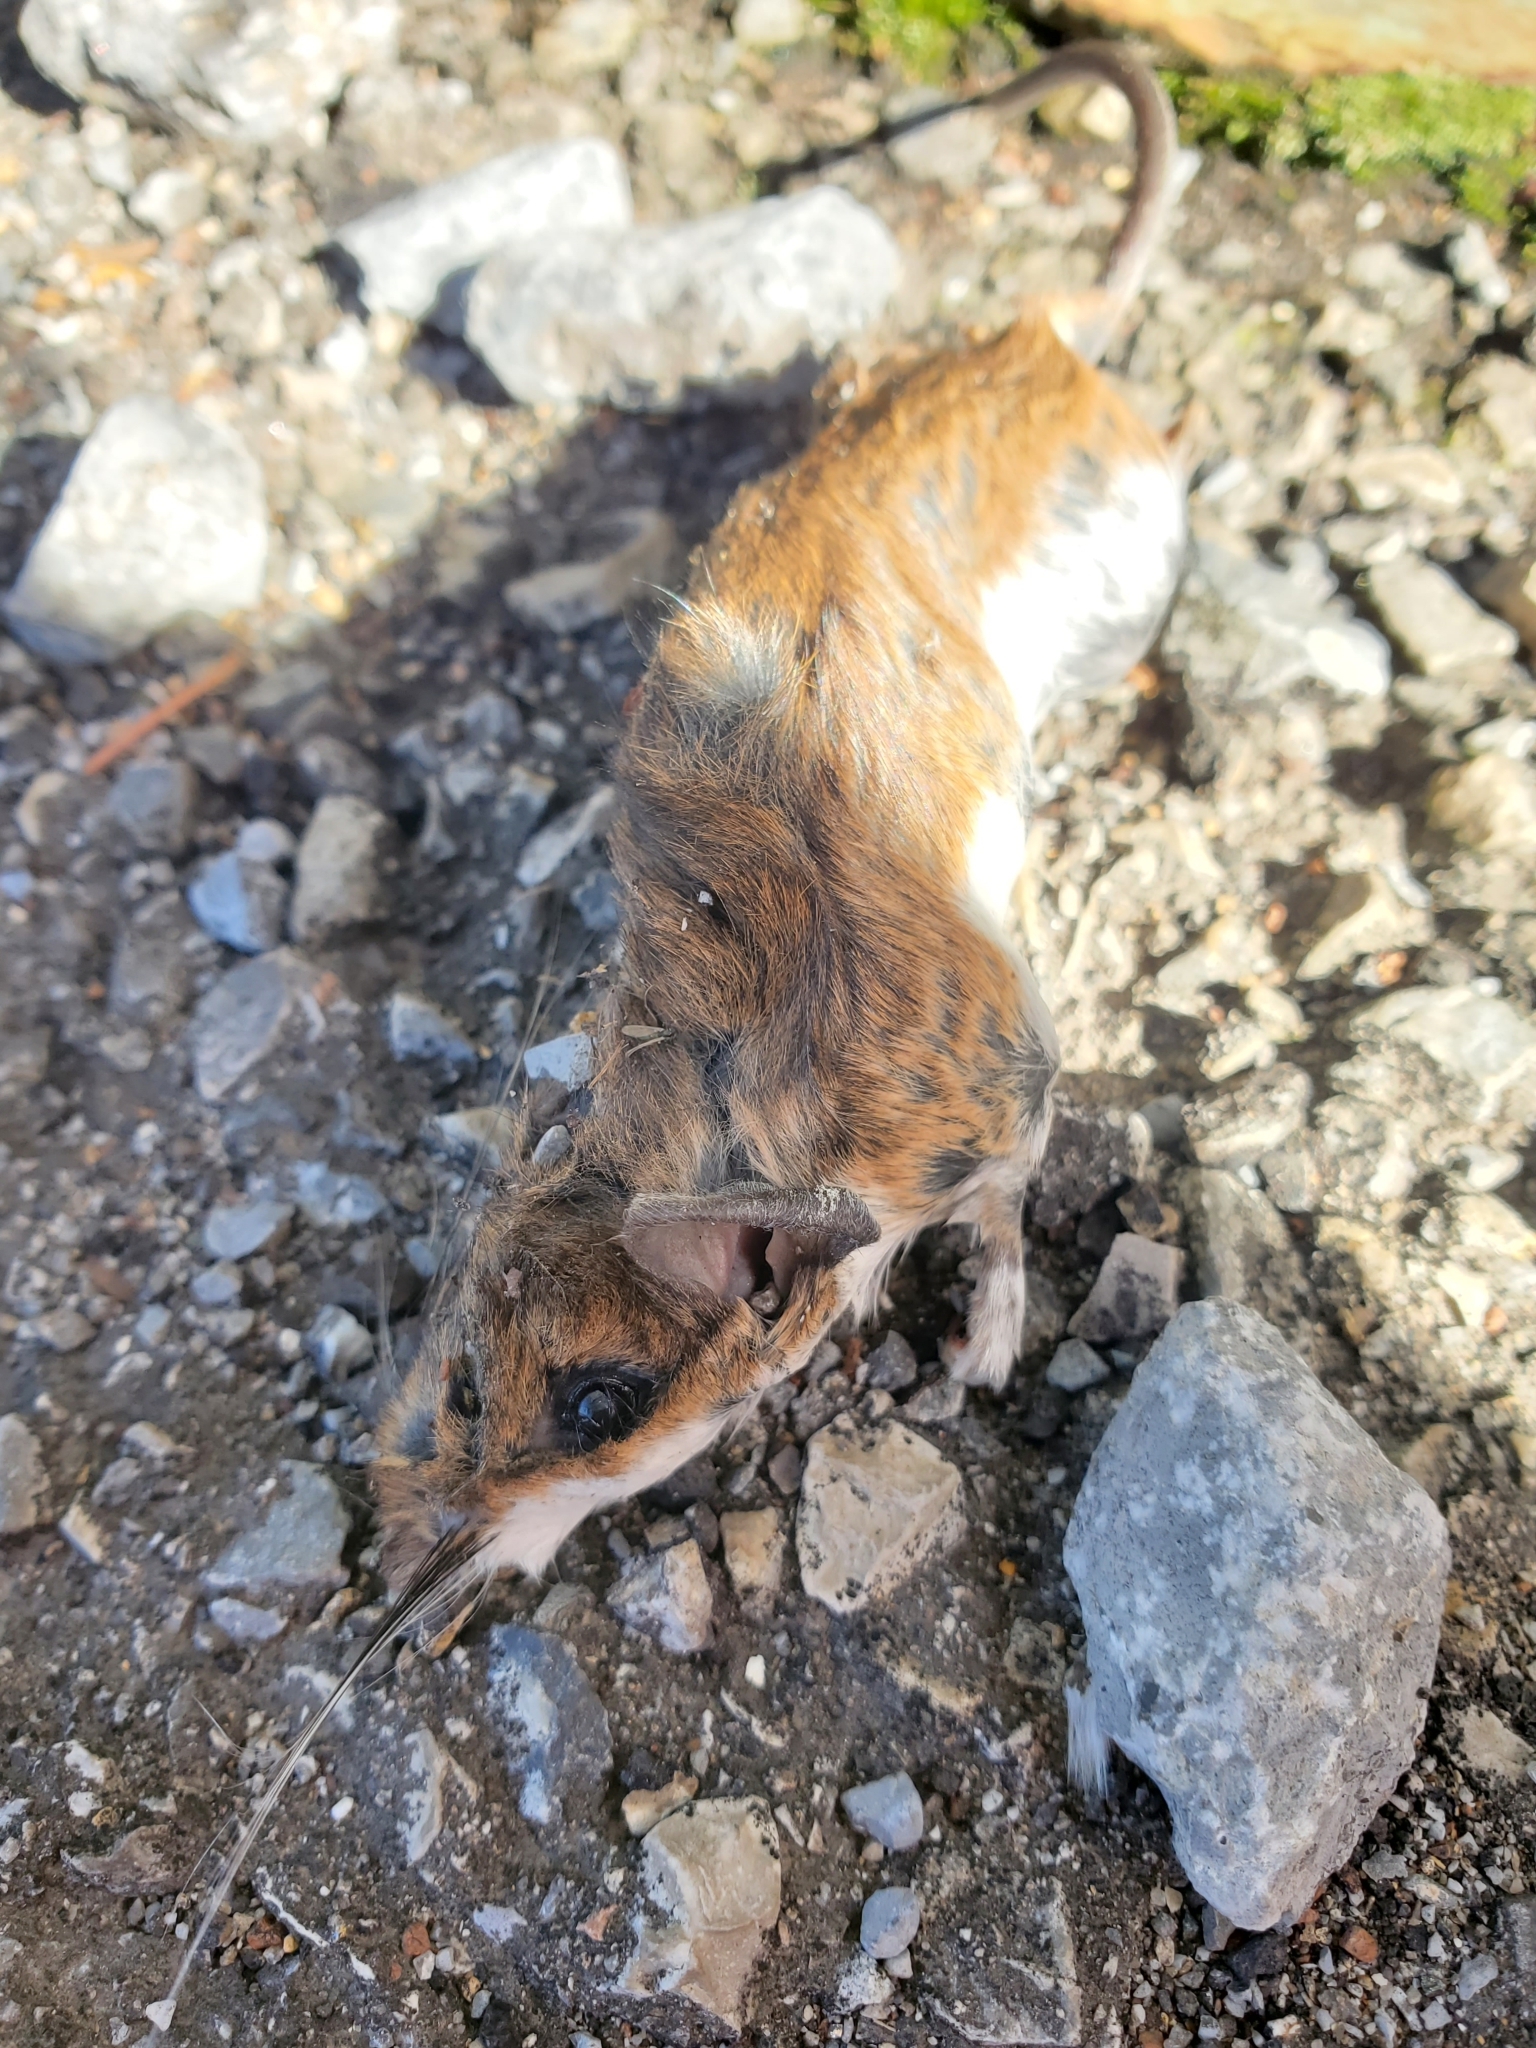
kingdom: Animalia
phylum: Chordata
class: Mammalia
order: Rodentia
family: Cricetidae
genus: Peromyscus
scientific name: Peromyscus leucopus
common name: White-footed deermouse
